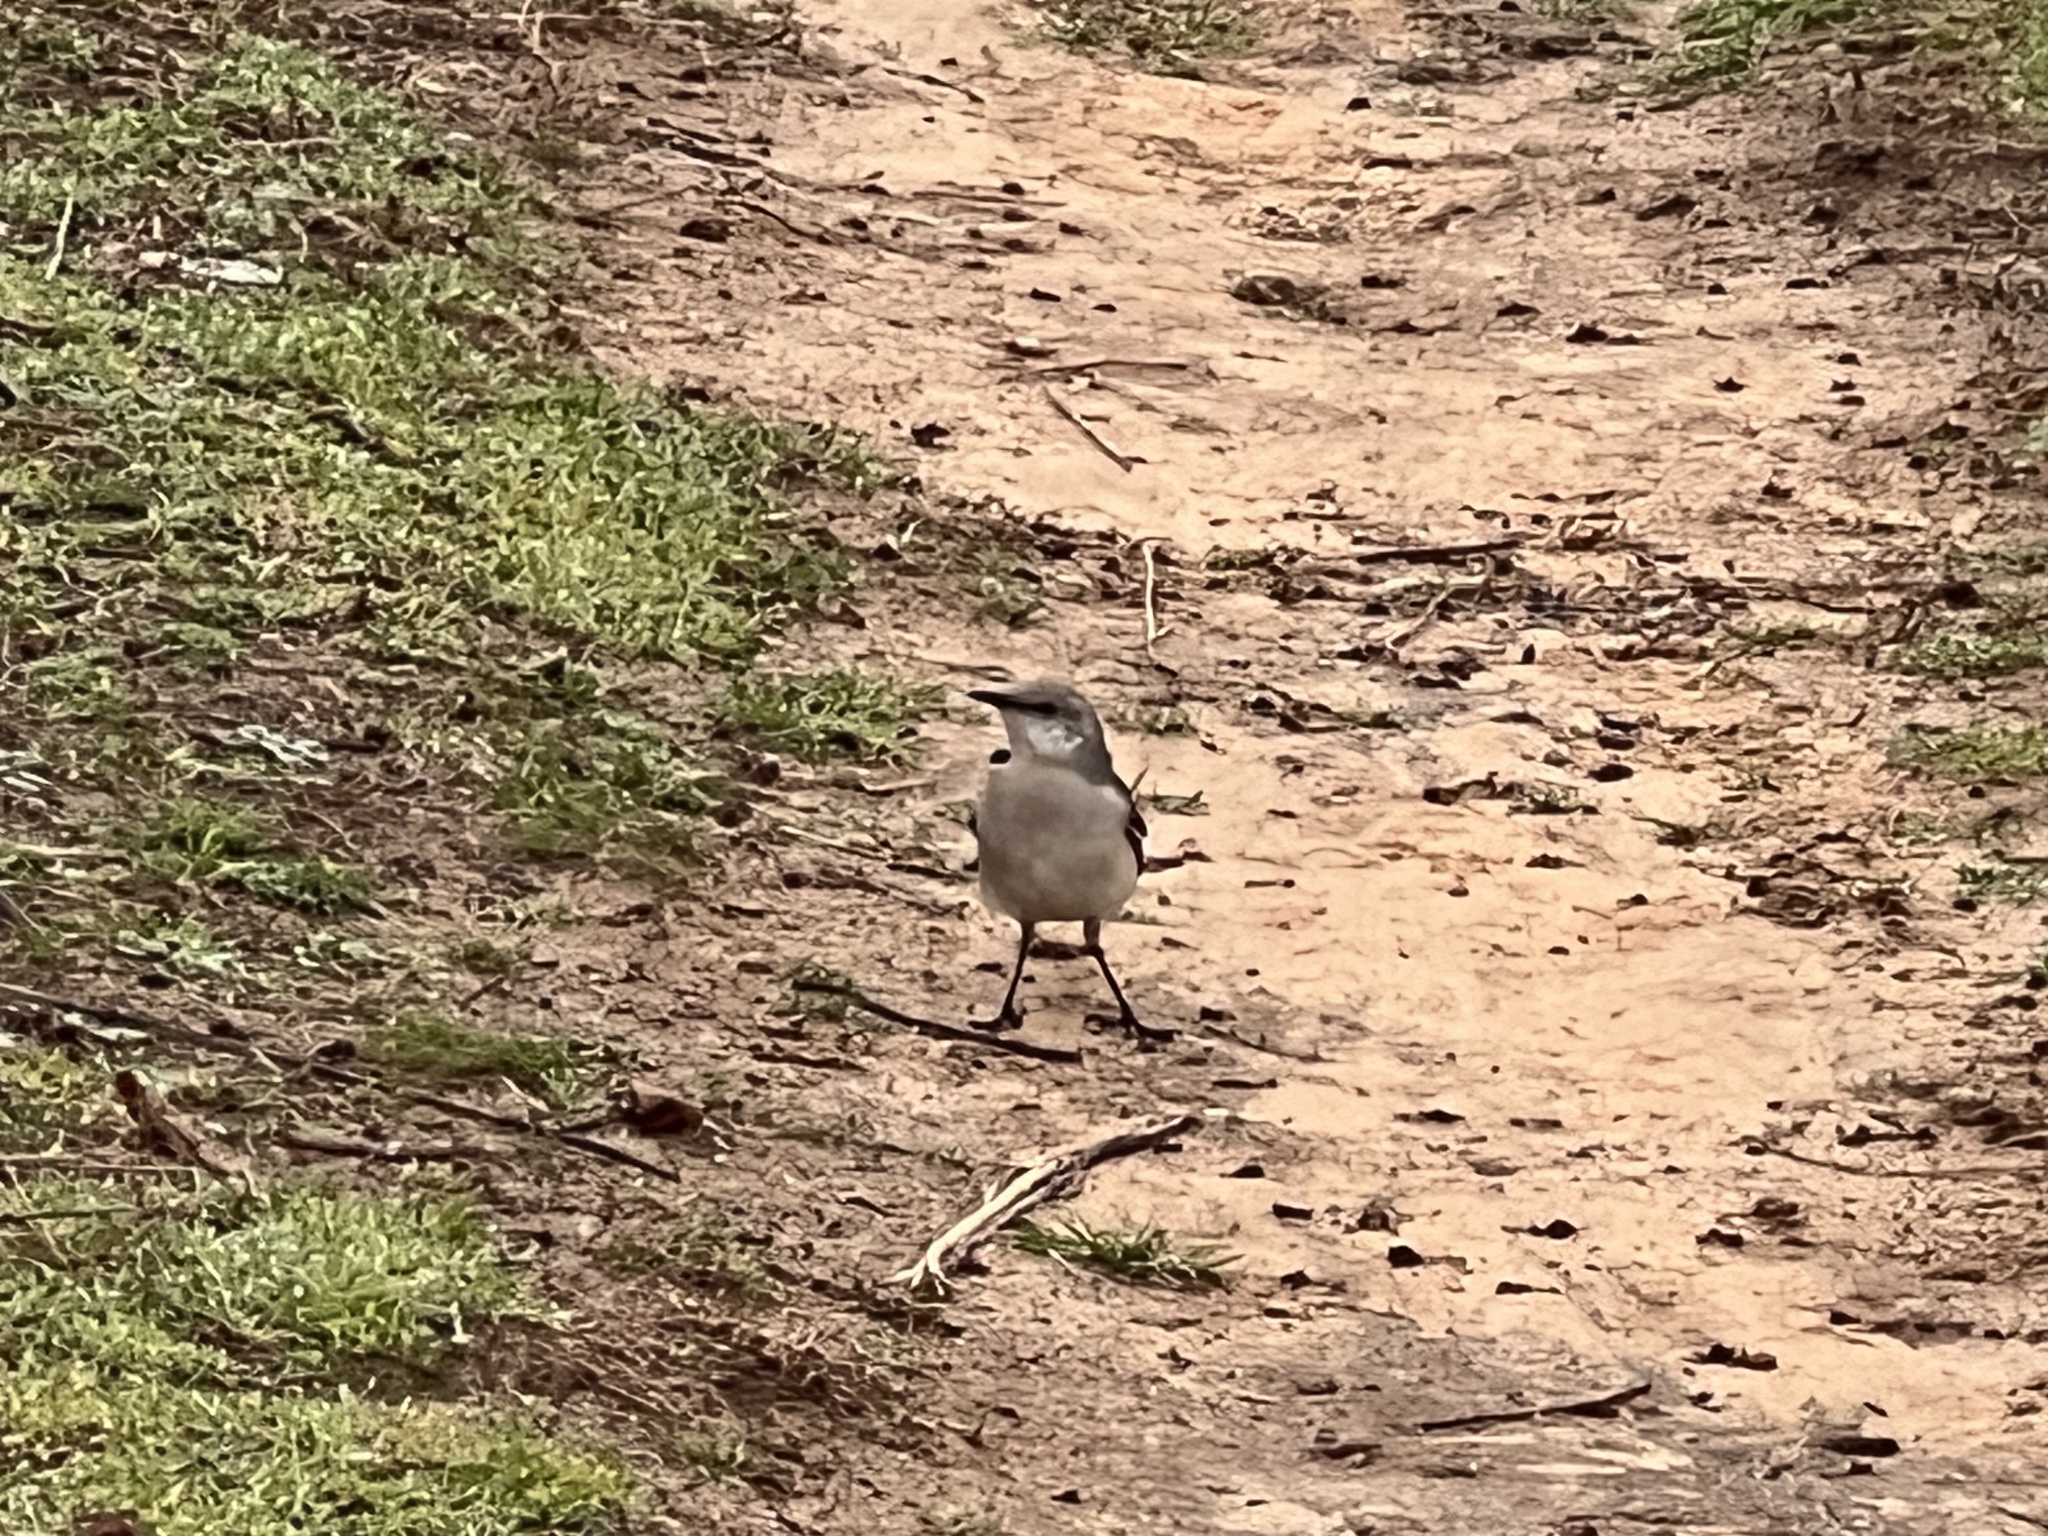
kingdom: Animalia
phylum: Chordata
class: Aves
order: Passeriformes
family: Mimidae
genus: Mimus
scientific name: Mimus polyglottos
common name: Northern mockingbird
